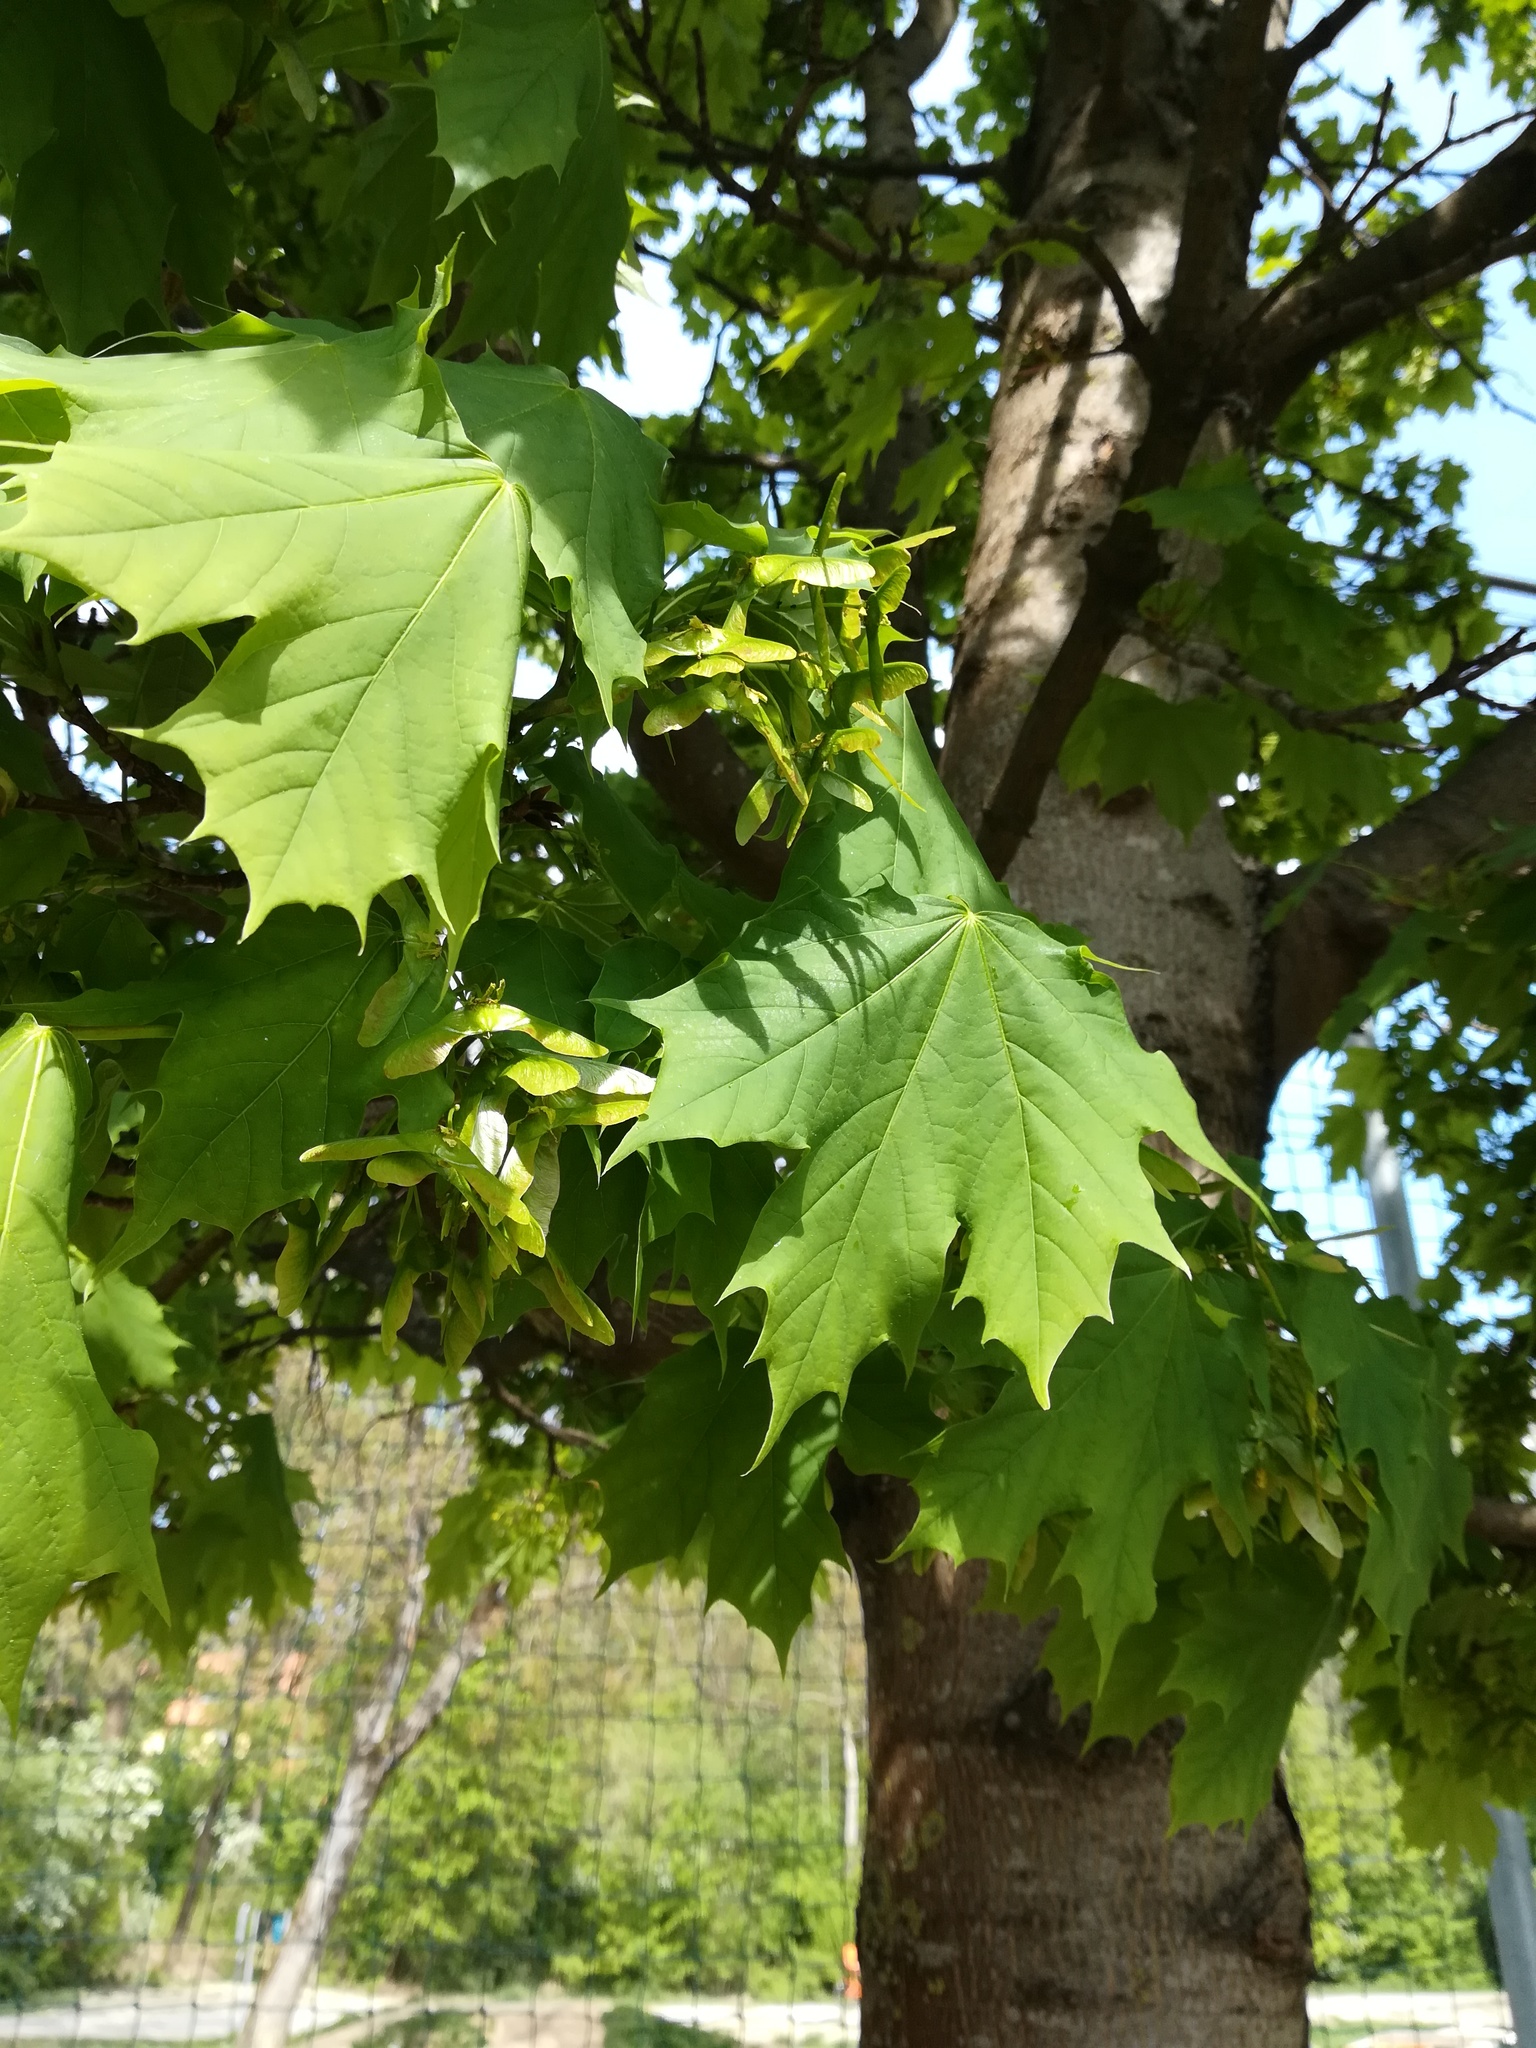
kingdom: Plantae
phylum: Tracheophyta
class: Magnoliopsida
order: Sapindales
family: Sapindaceae
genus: Acer
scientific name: Acer platanoides
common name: Norway maple
